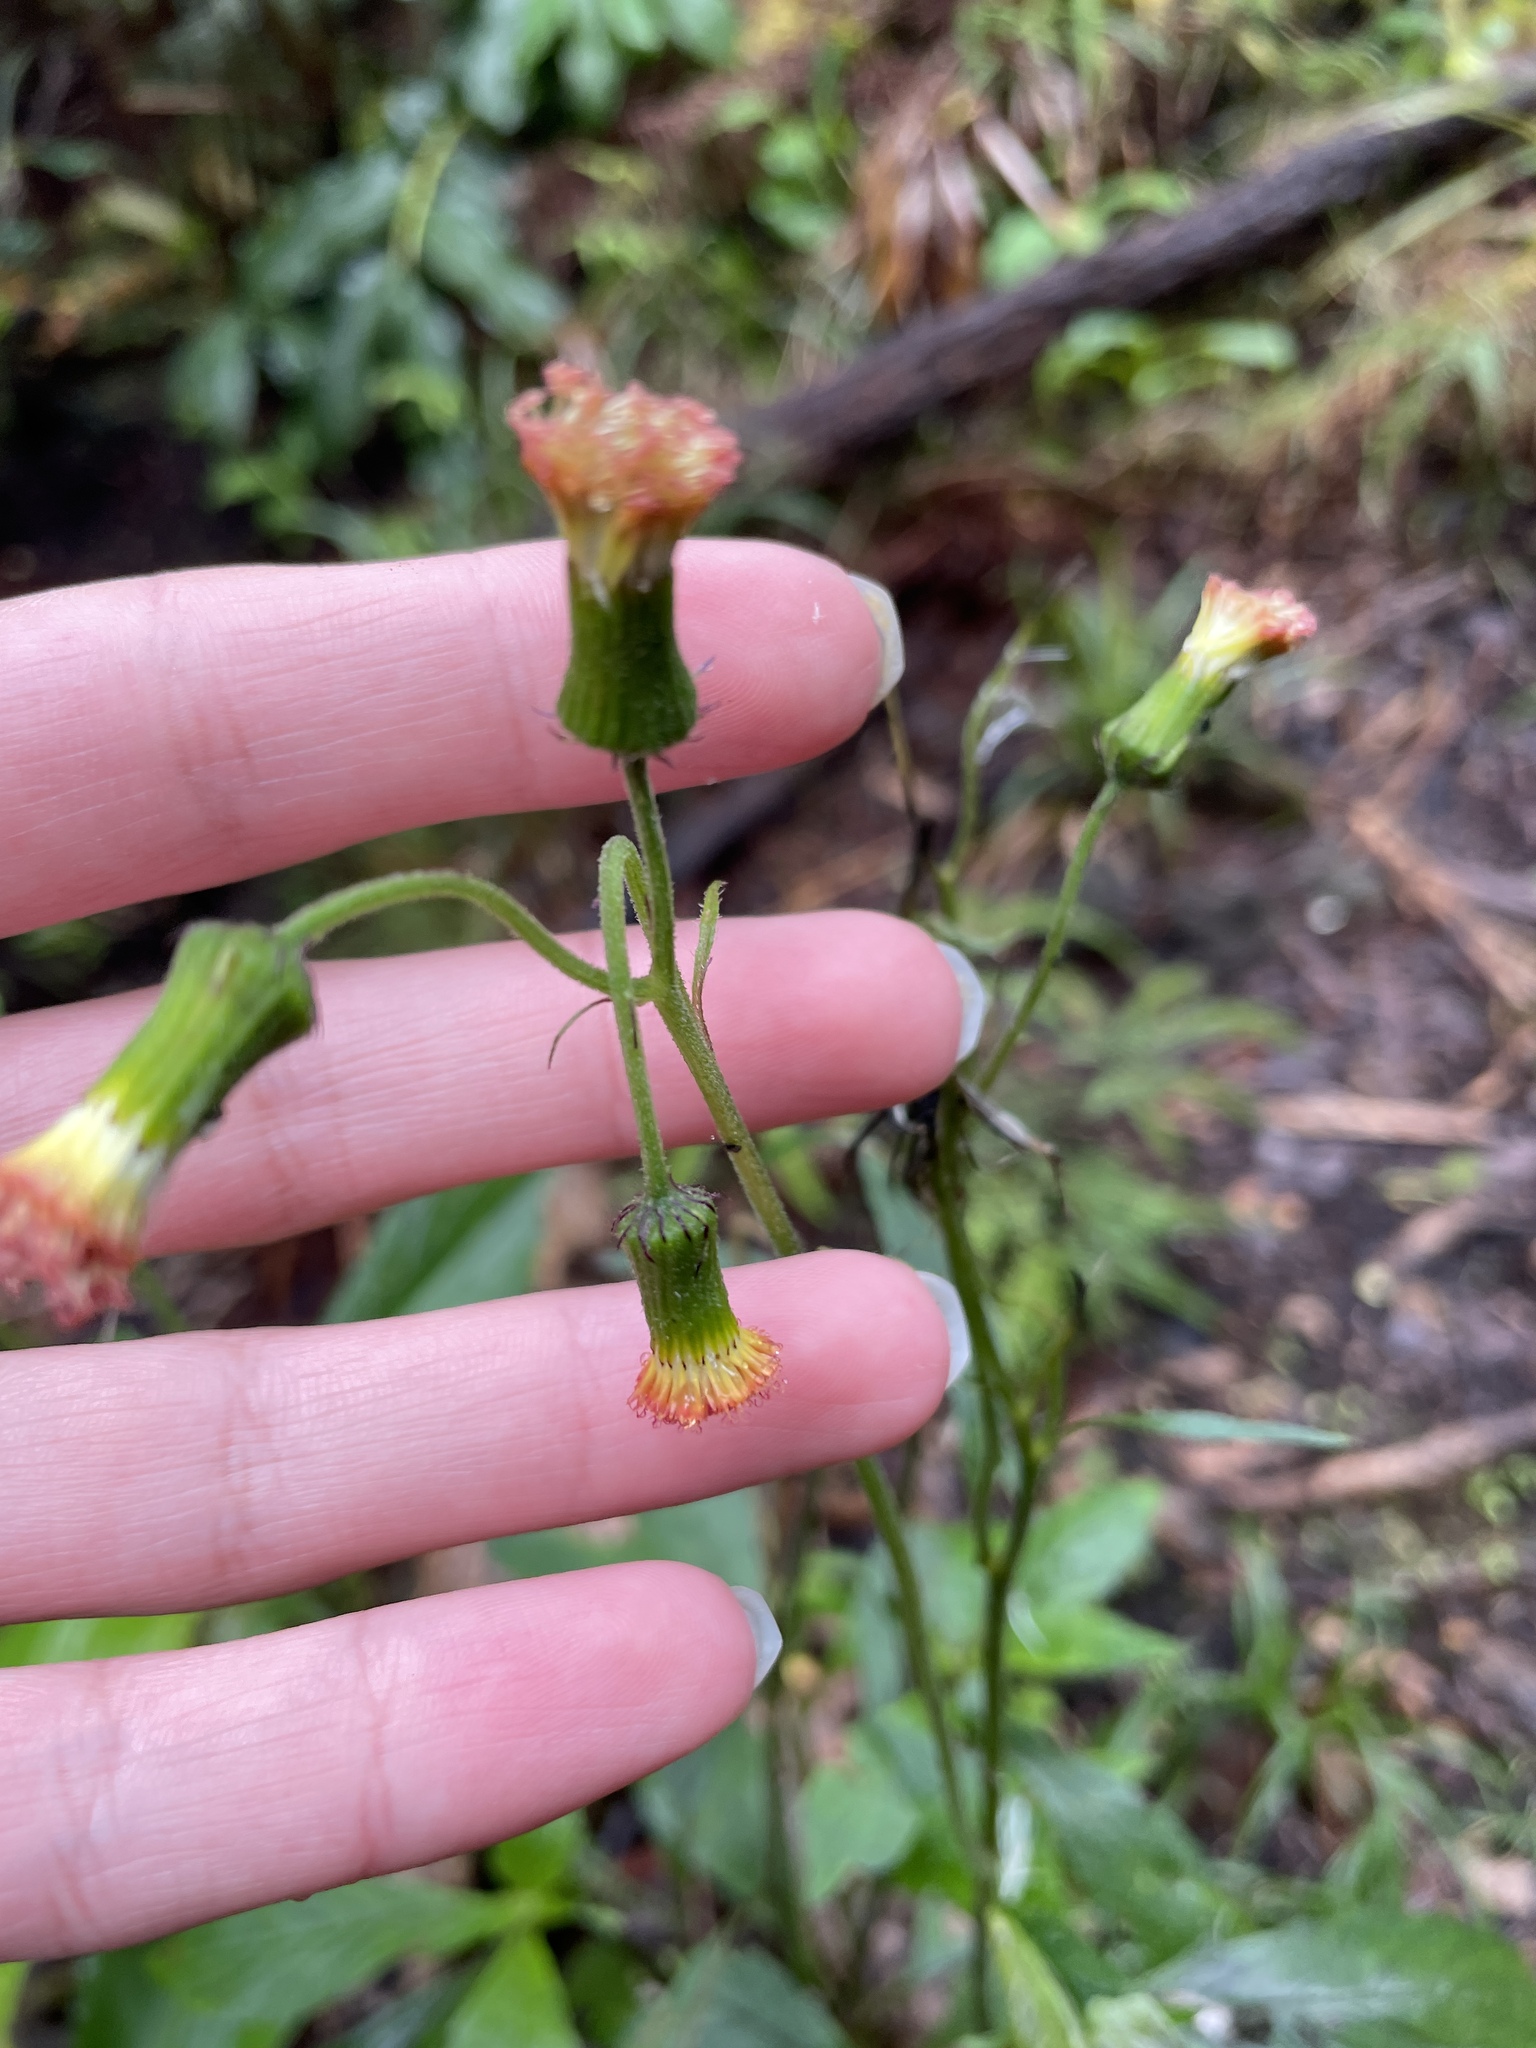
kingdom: Plantae
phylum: Tracheophyta
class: Magnoliopsida
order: Asterales
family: Asteraceae
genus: Crassocephalum
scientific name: Crassocephalum crepidioides
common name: Redflower ragleaf
